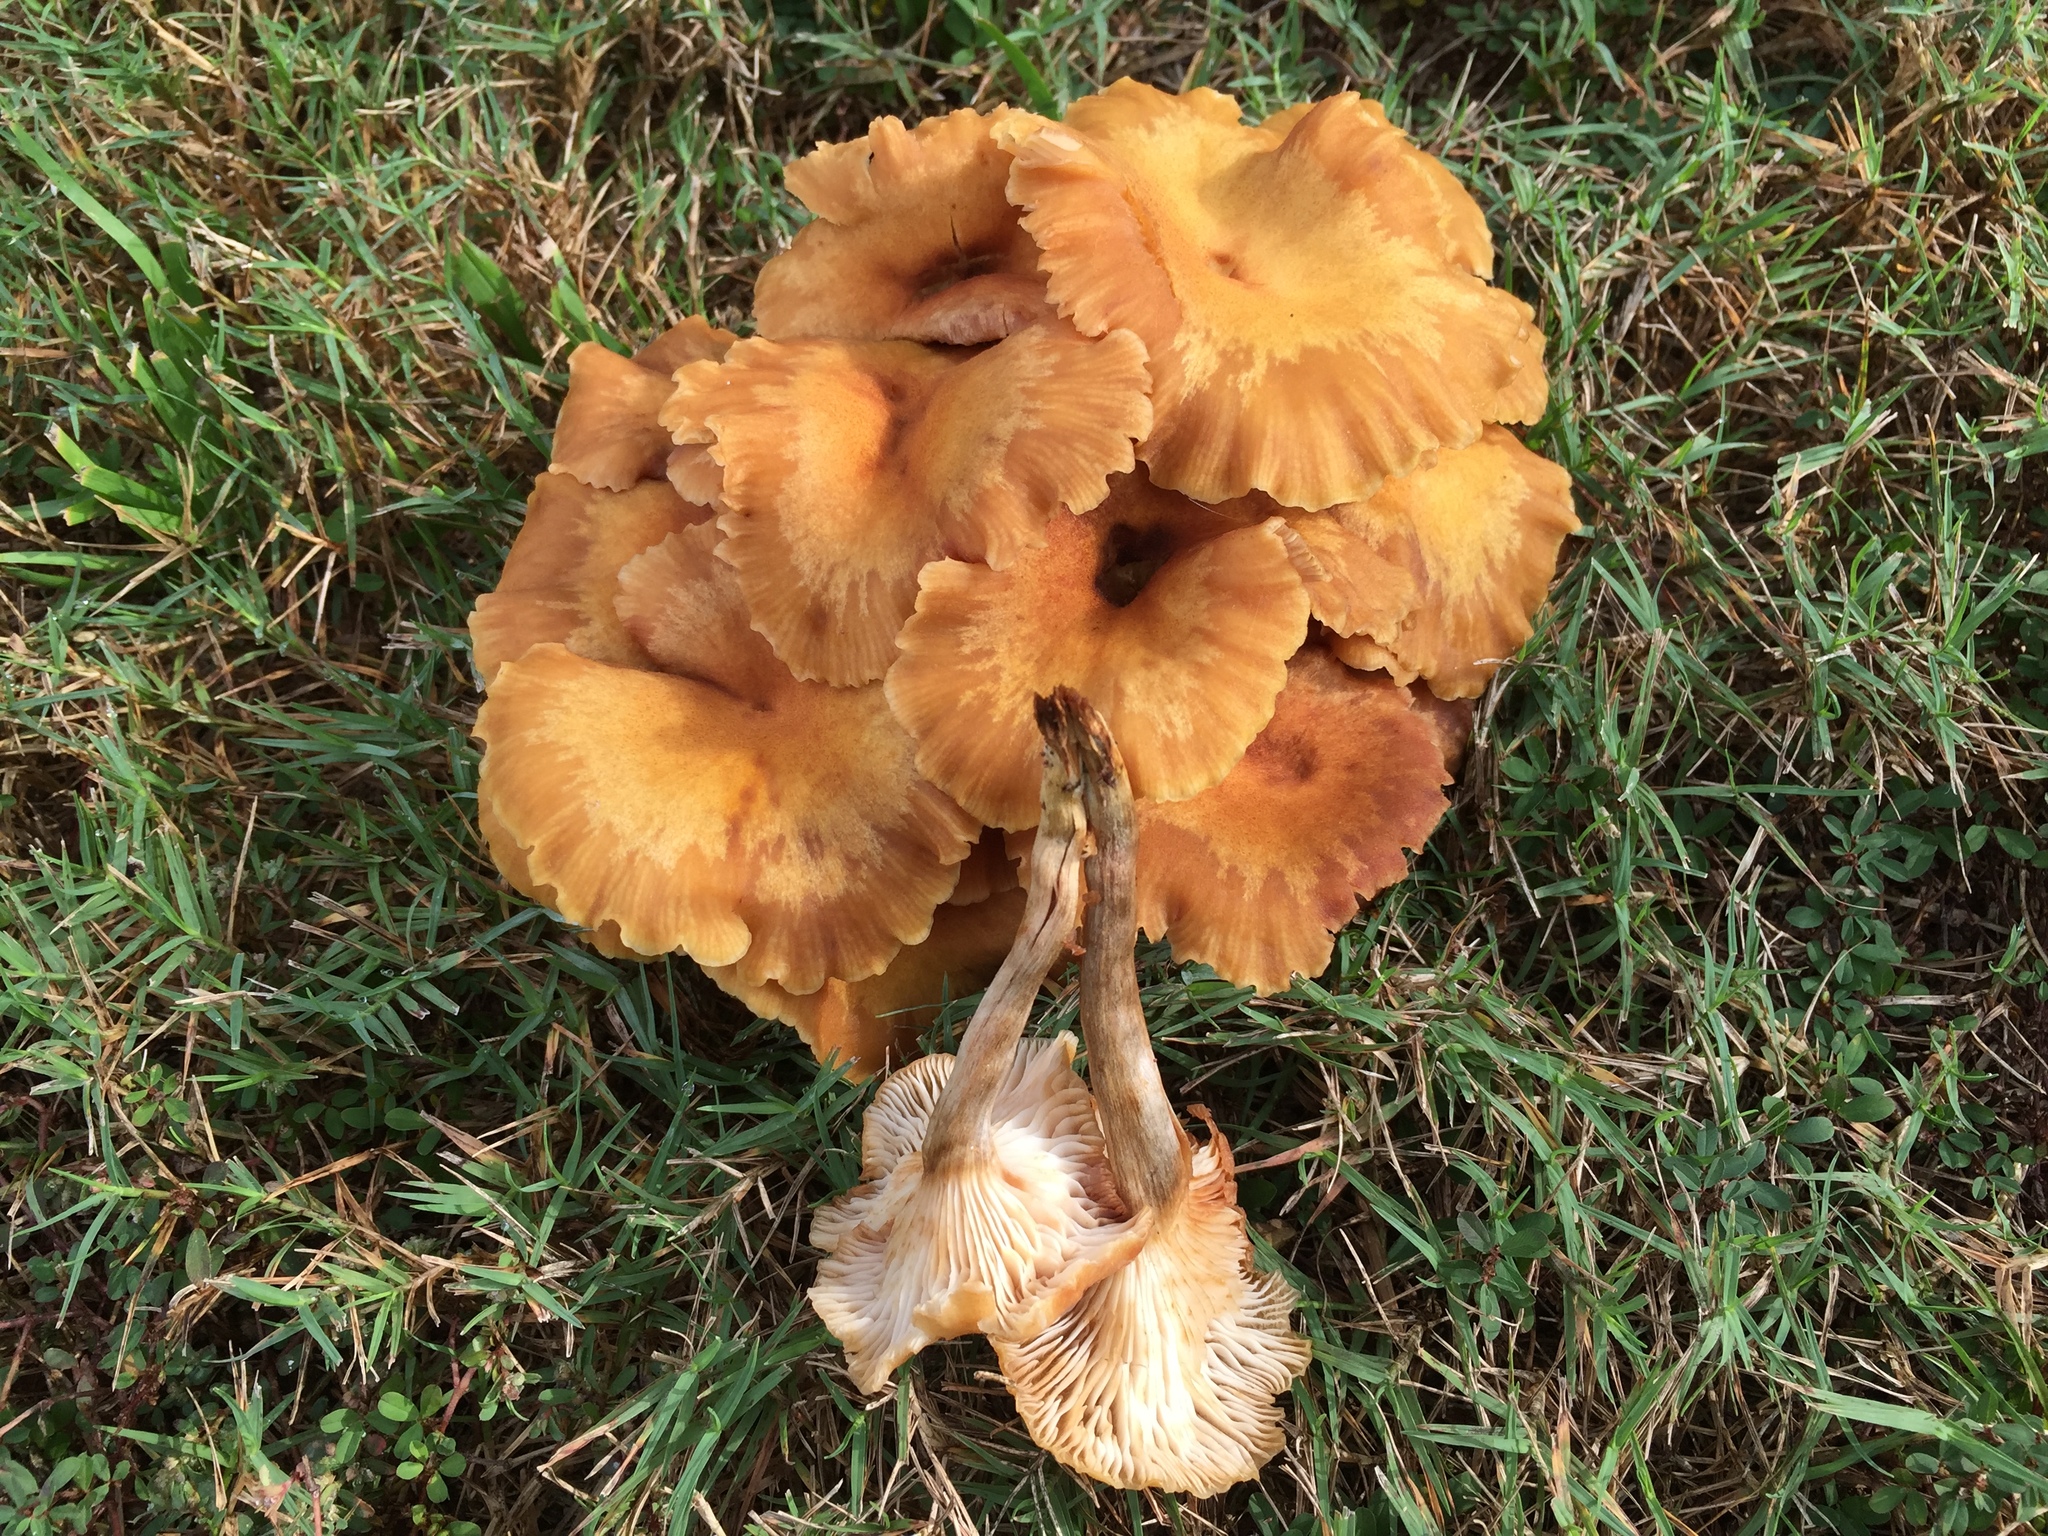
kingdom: Fungi
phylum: Basidiomycota
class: Agaricomycetes
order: Agaricales
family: Physalacriaceae
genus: Desarmillaria
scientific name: Desarmillaria caespitosa
